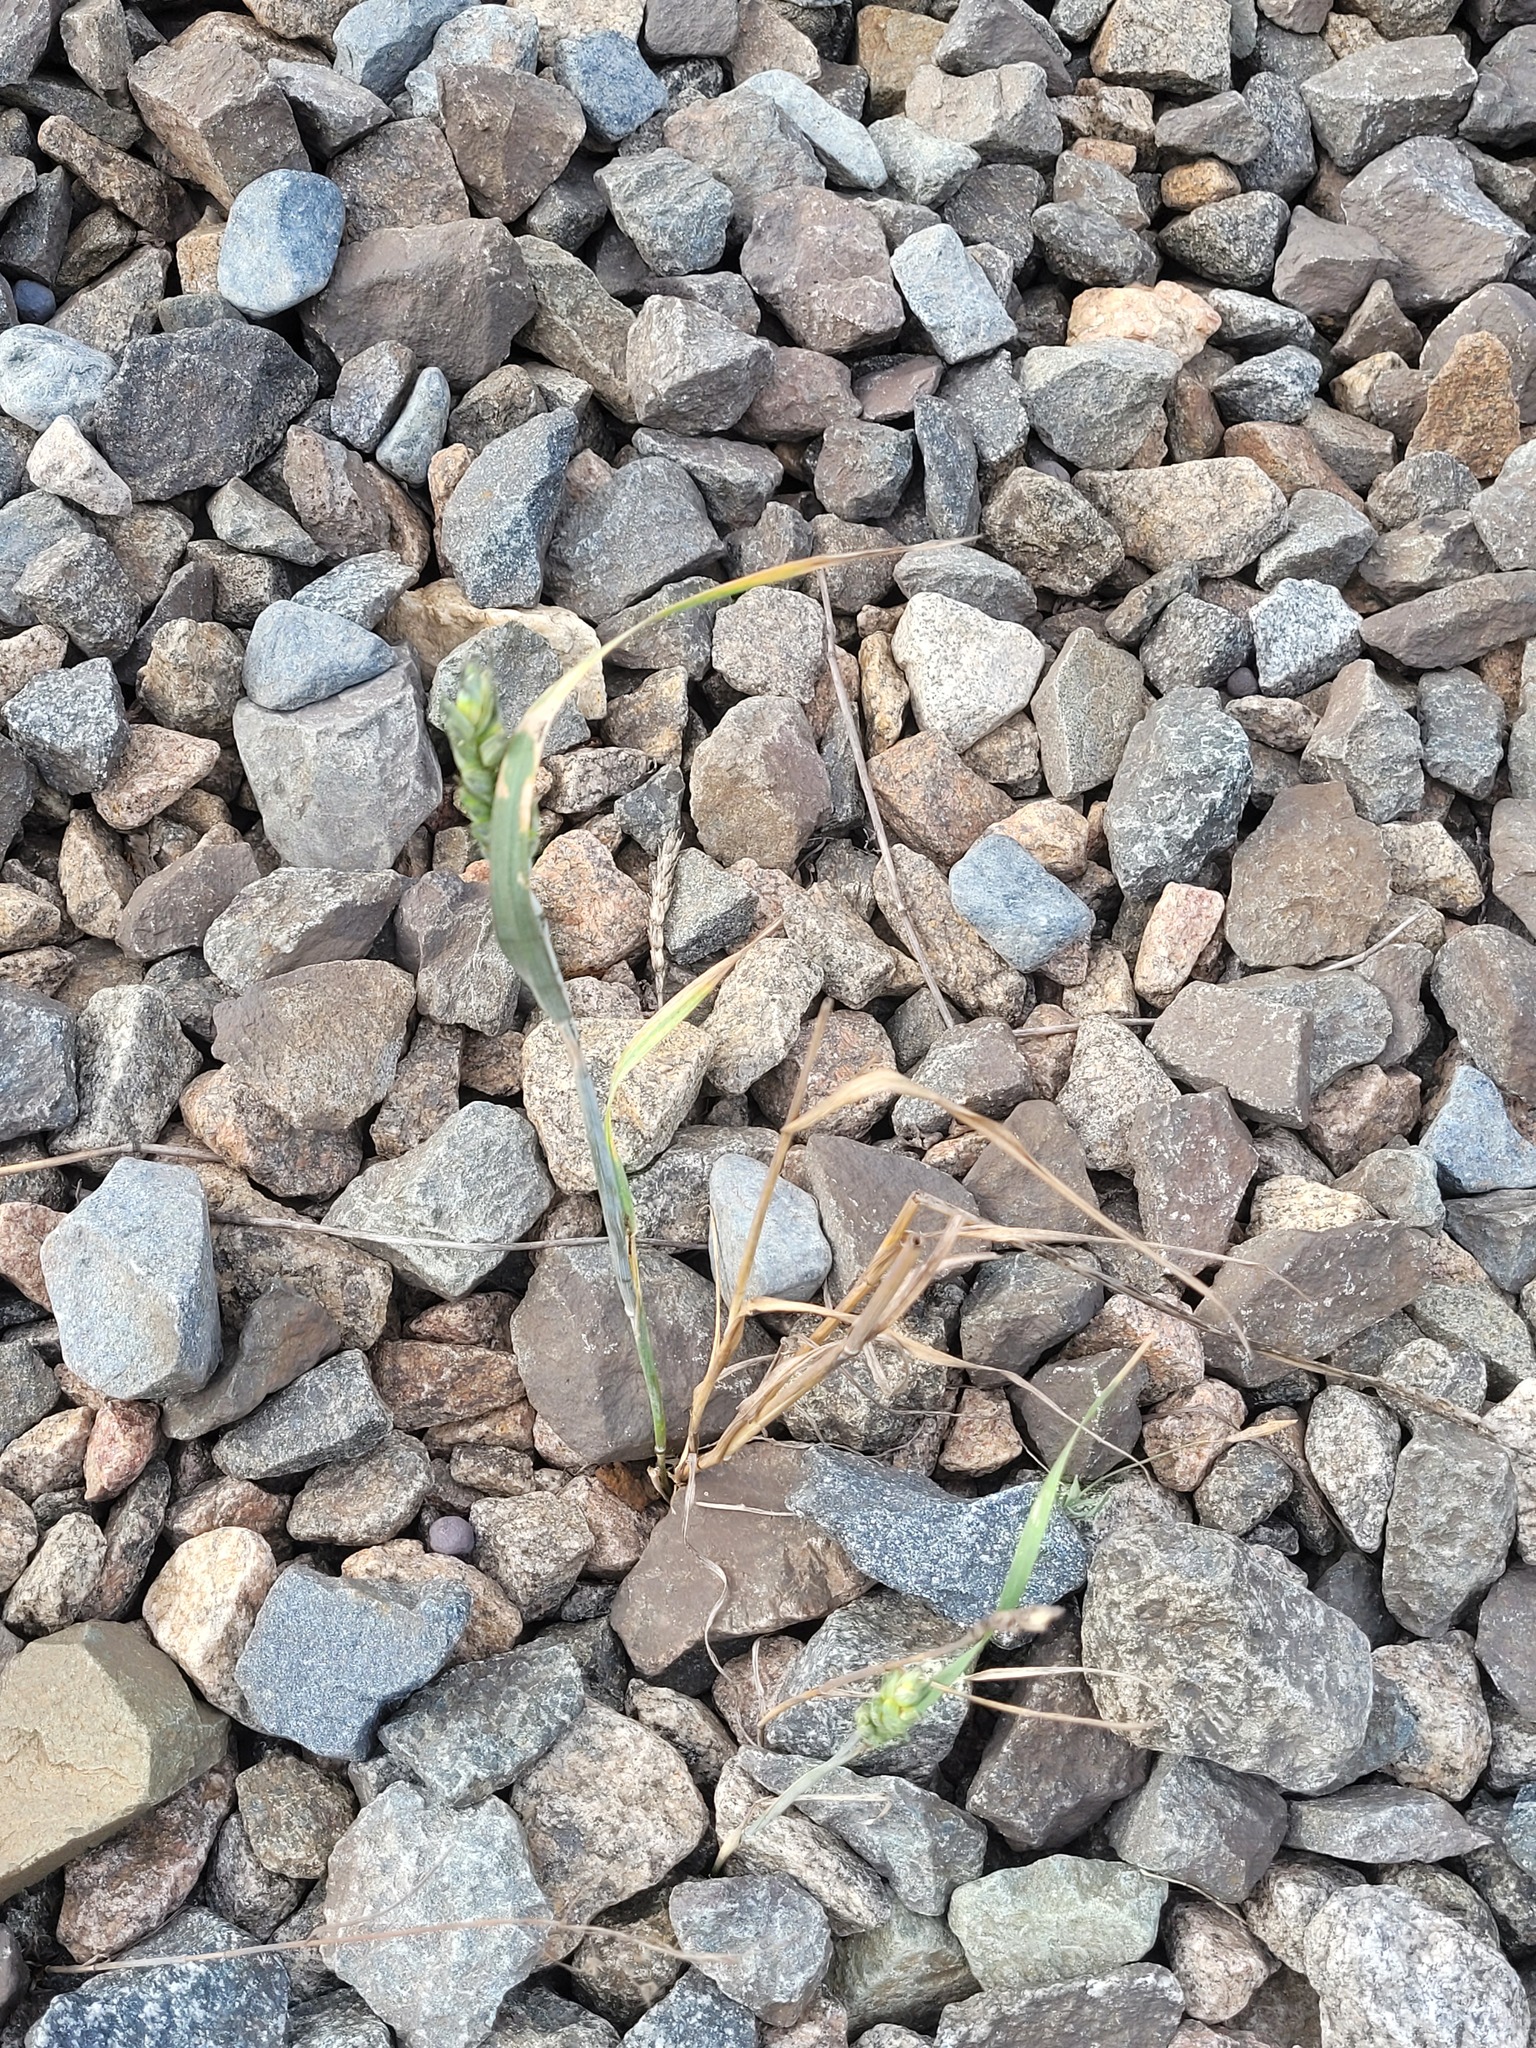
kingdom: Plantae
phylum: Tracheophyta
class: Liliopsida
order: Poales
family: Poaceae
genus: Triticum
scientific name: Triticum aestivum
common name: Common wheat
